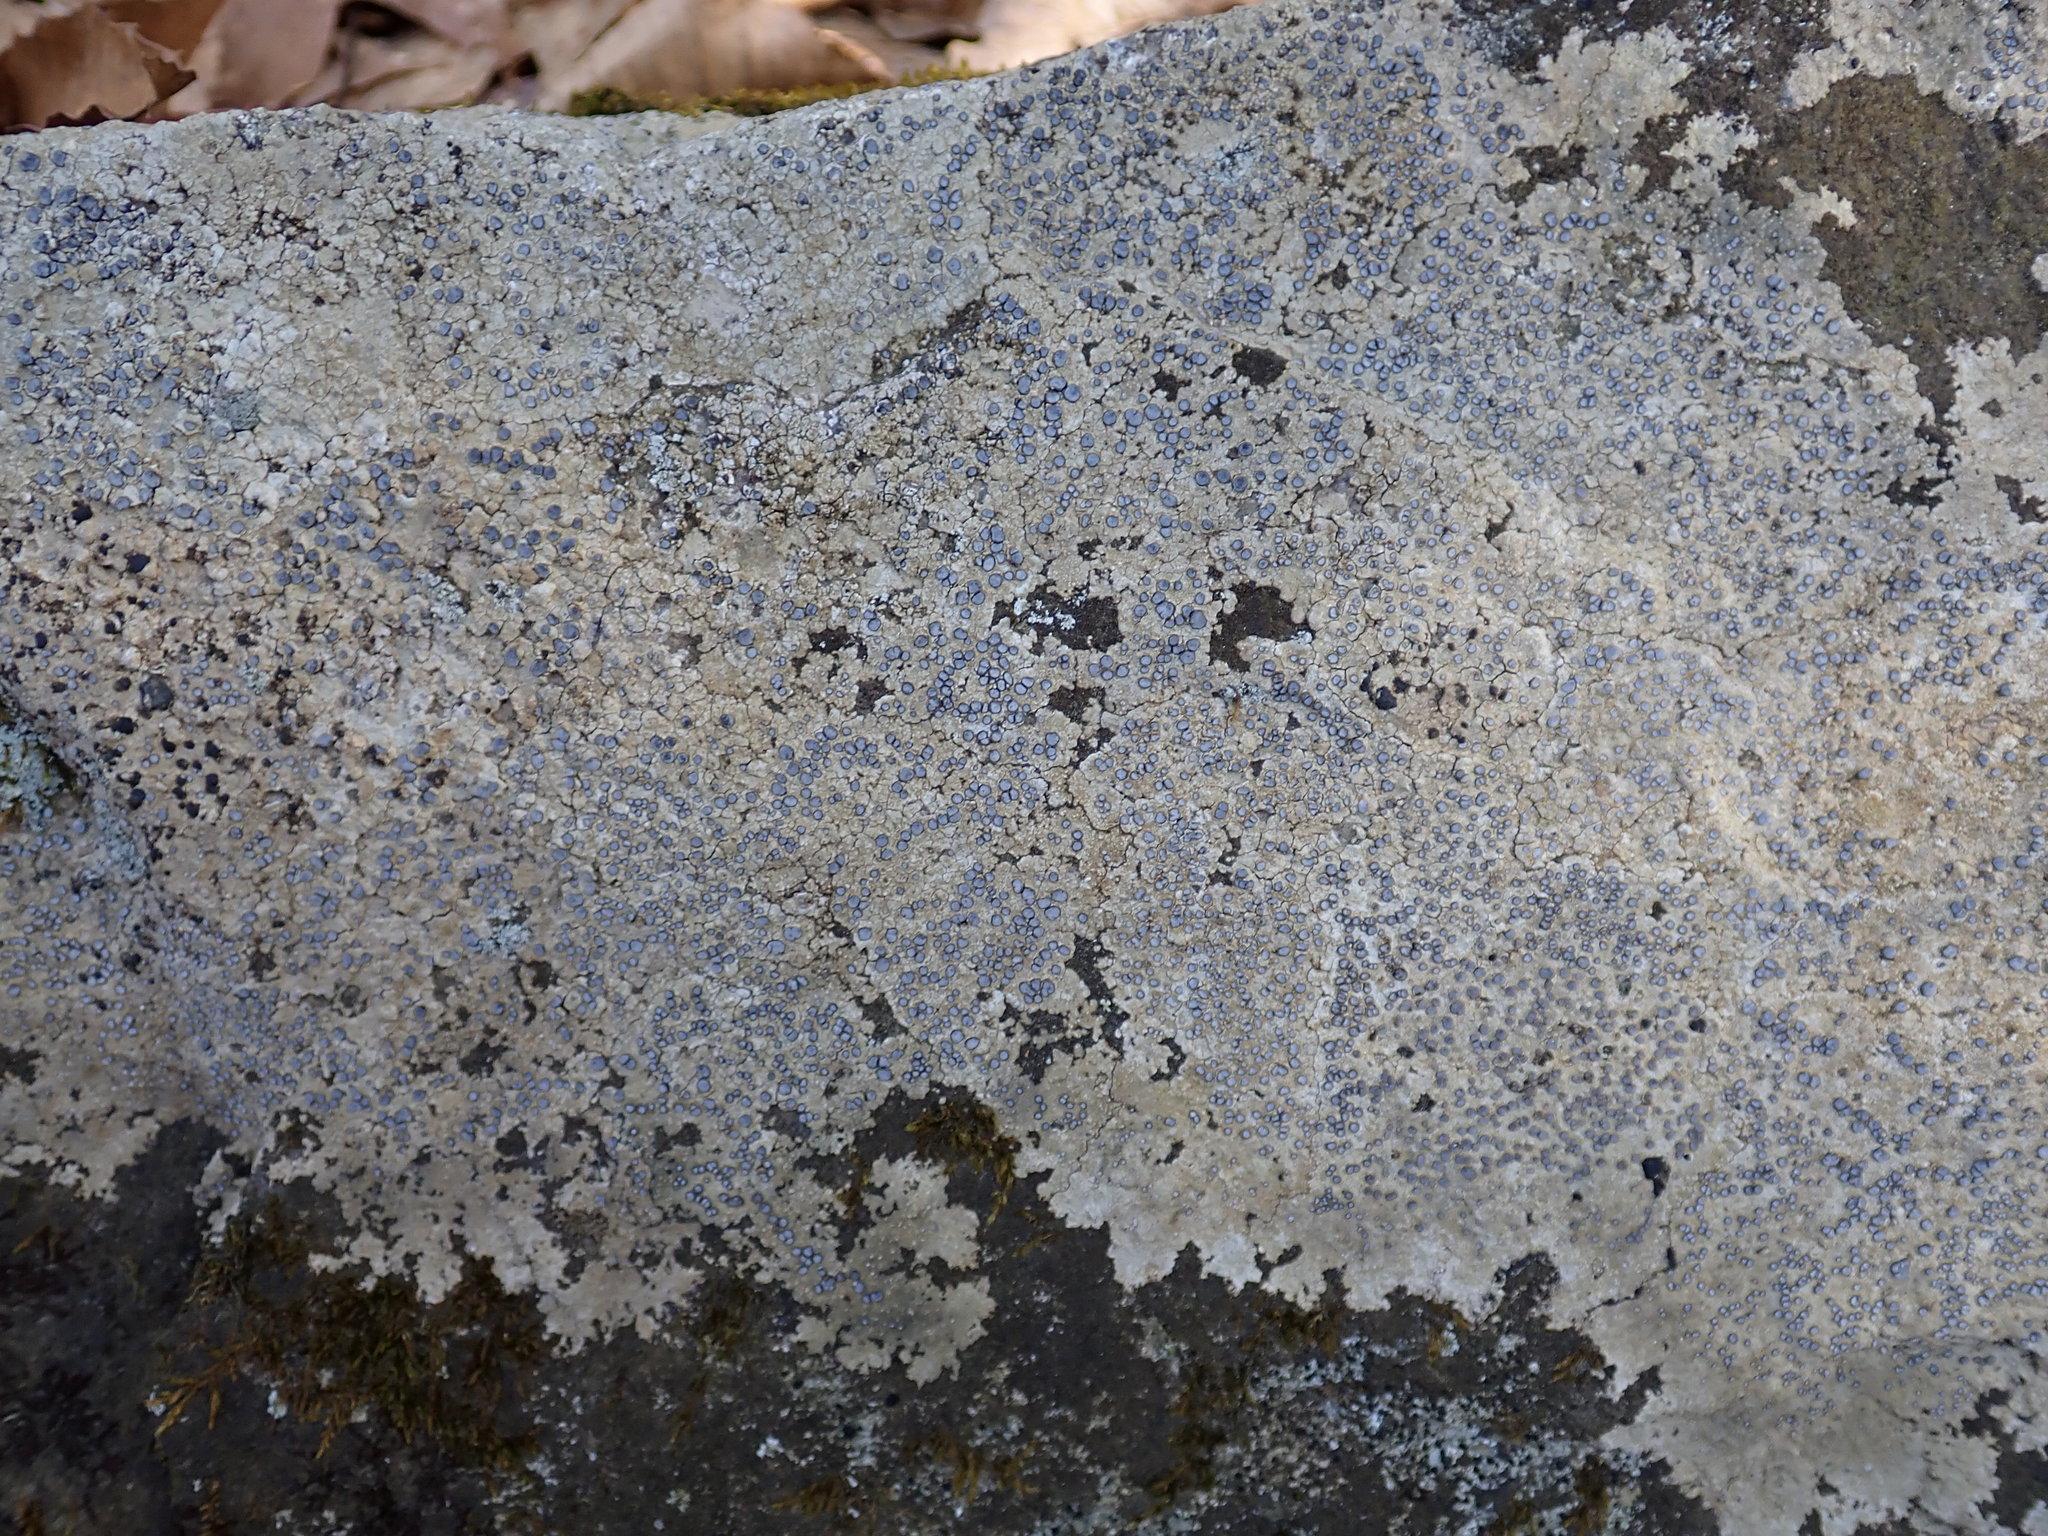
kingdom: Fungi
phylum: Ascomycota
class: Lecanoromycetes
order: Lecideales
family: Lecideaceae
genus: Porpidia
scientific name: Porpidia albocaerulescens
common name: Smokey-eyed boulder lichen
